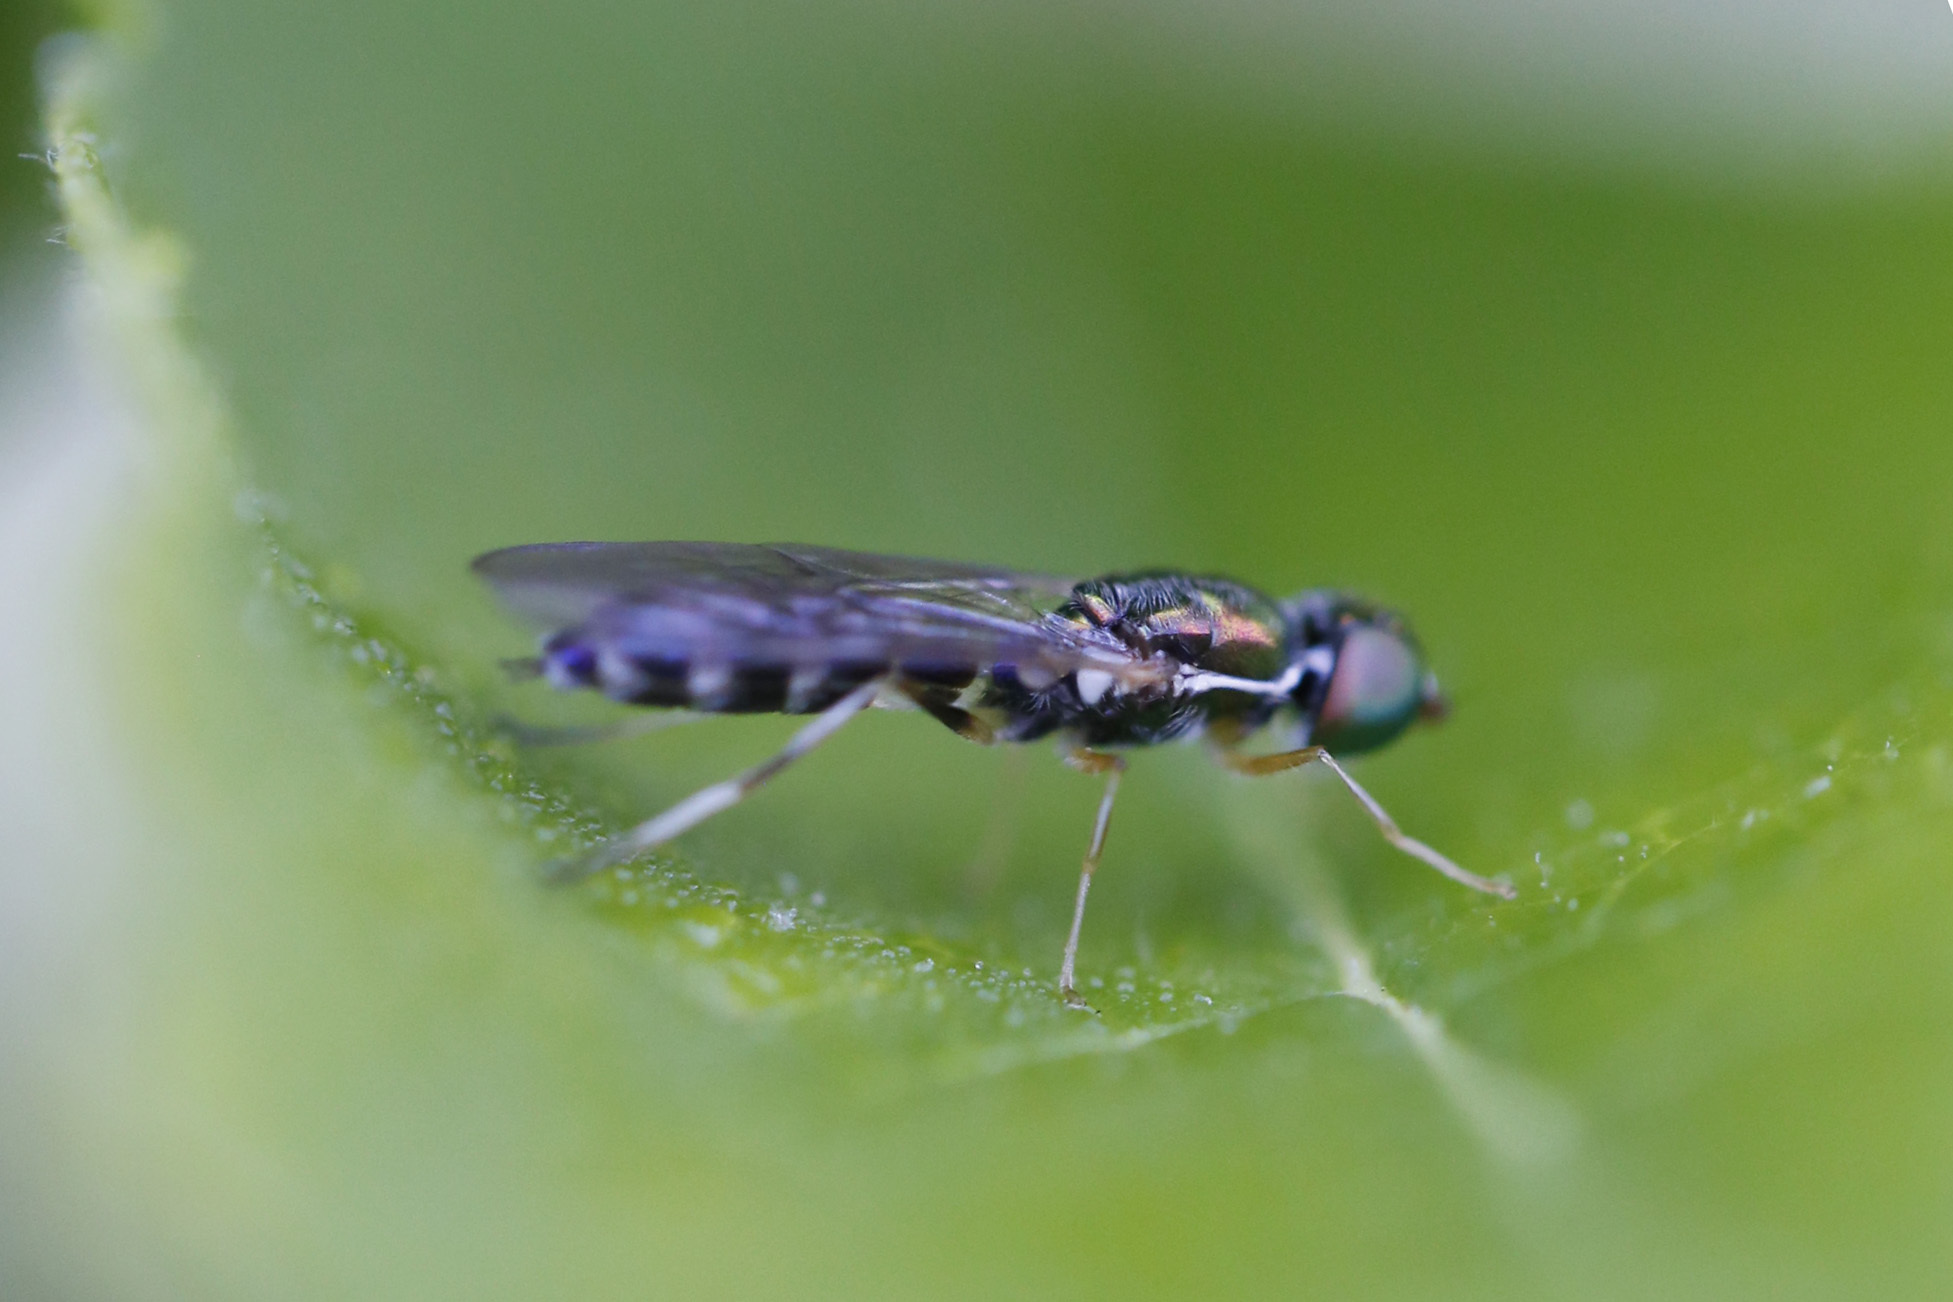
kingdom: Animalia
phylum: Arthropoda
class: Insecta
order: Diptera
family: Stratiomyidae
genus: Sargus
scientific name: Sargus fasciatus
